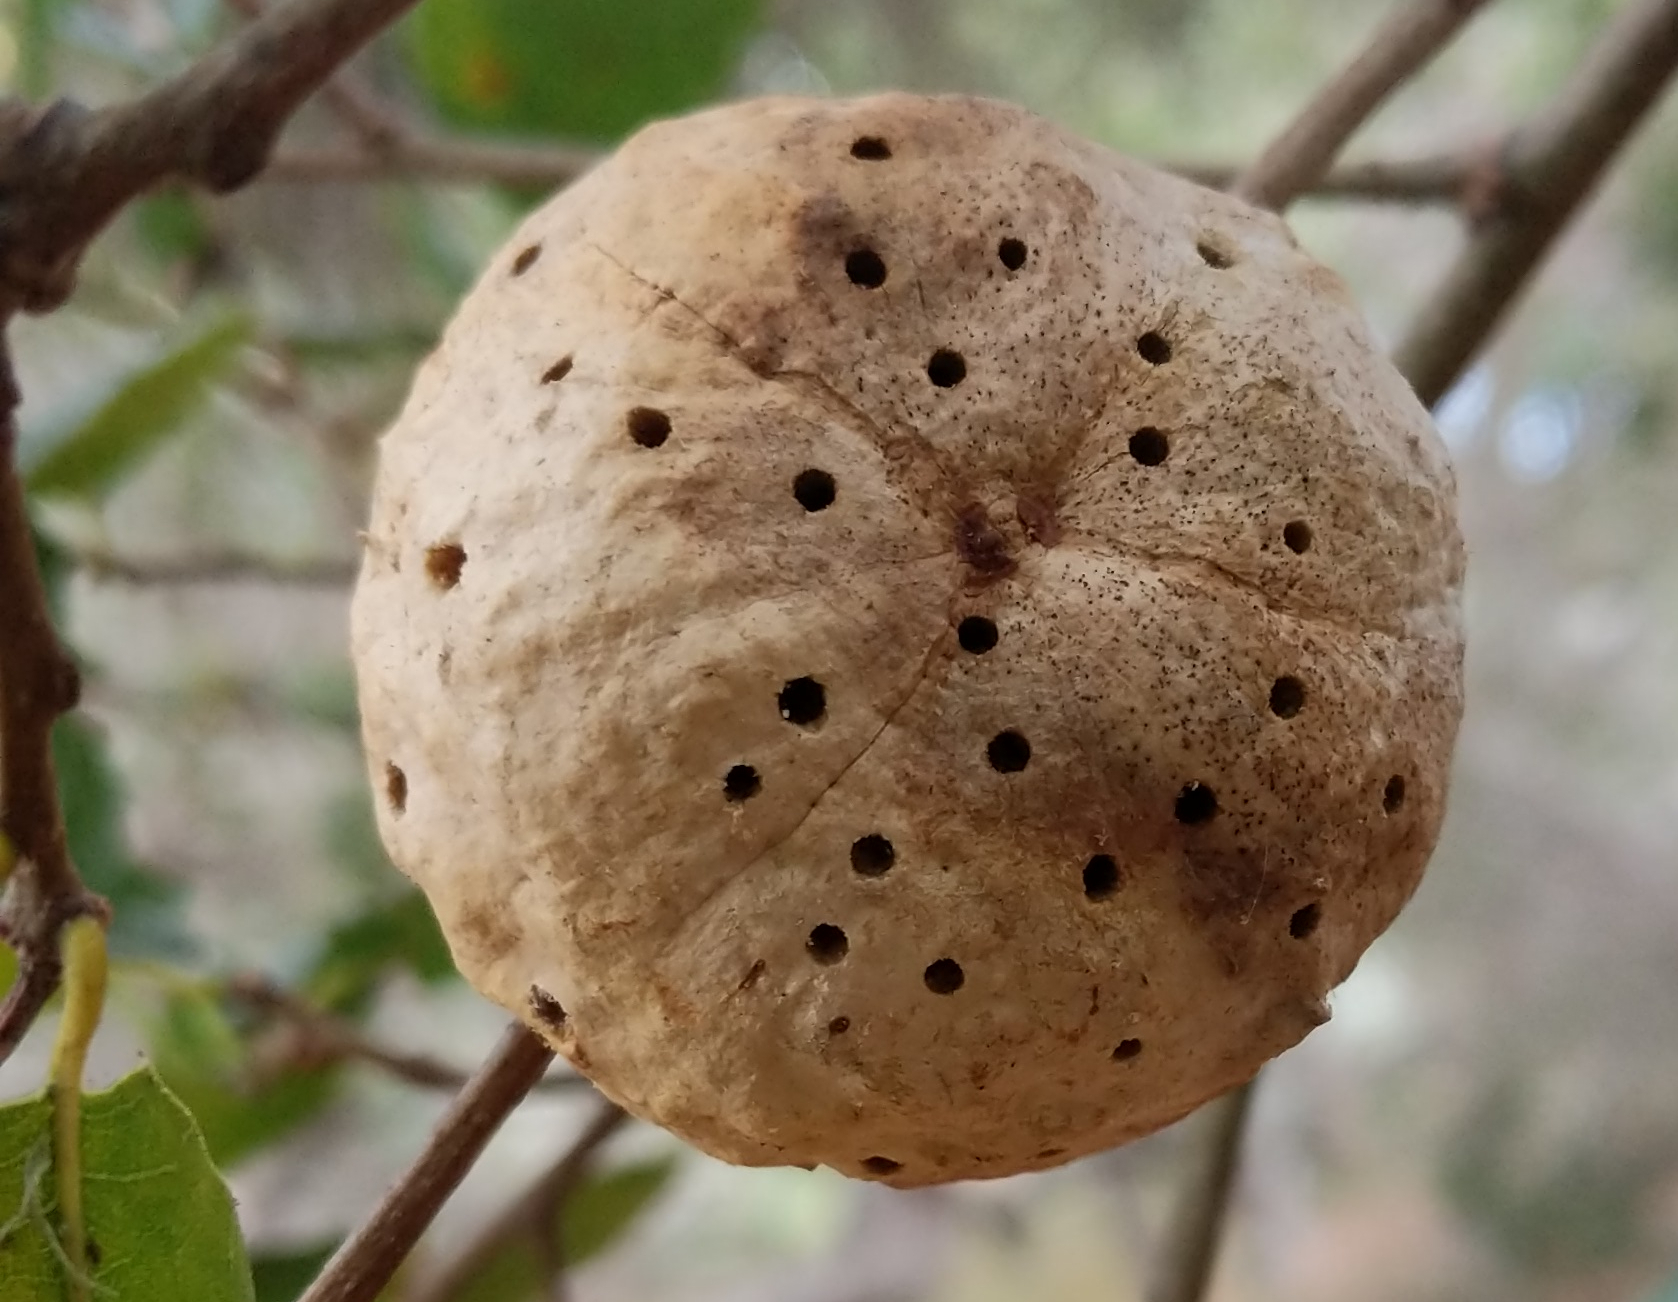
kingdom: Animalia
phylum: Arthropoda
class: Insecta
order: Hymenoptera
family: Cynipidae
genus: Amphibolips
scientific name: Amphibolips quercuspomiformis
